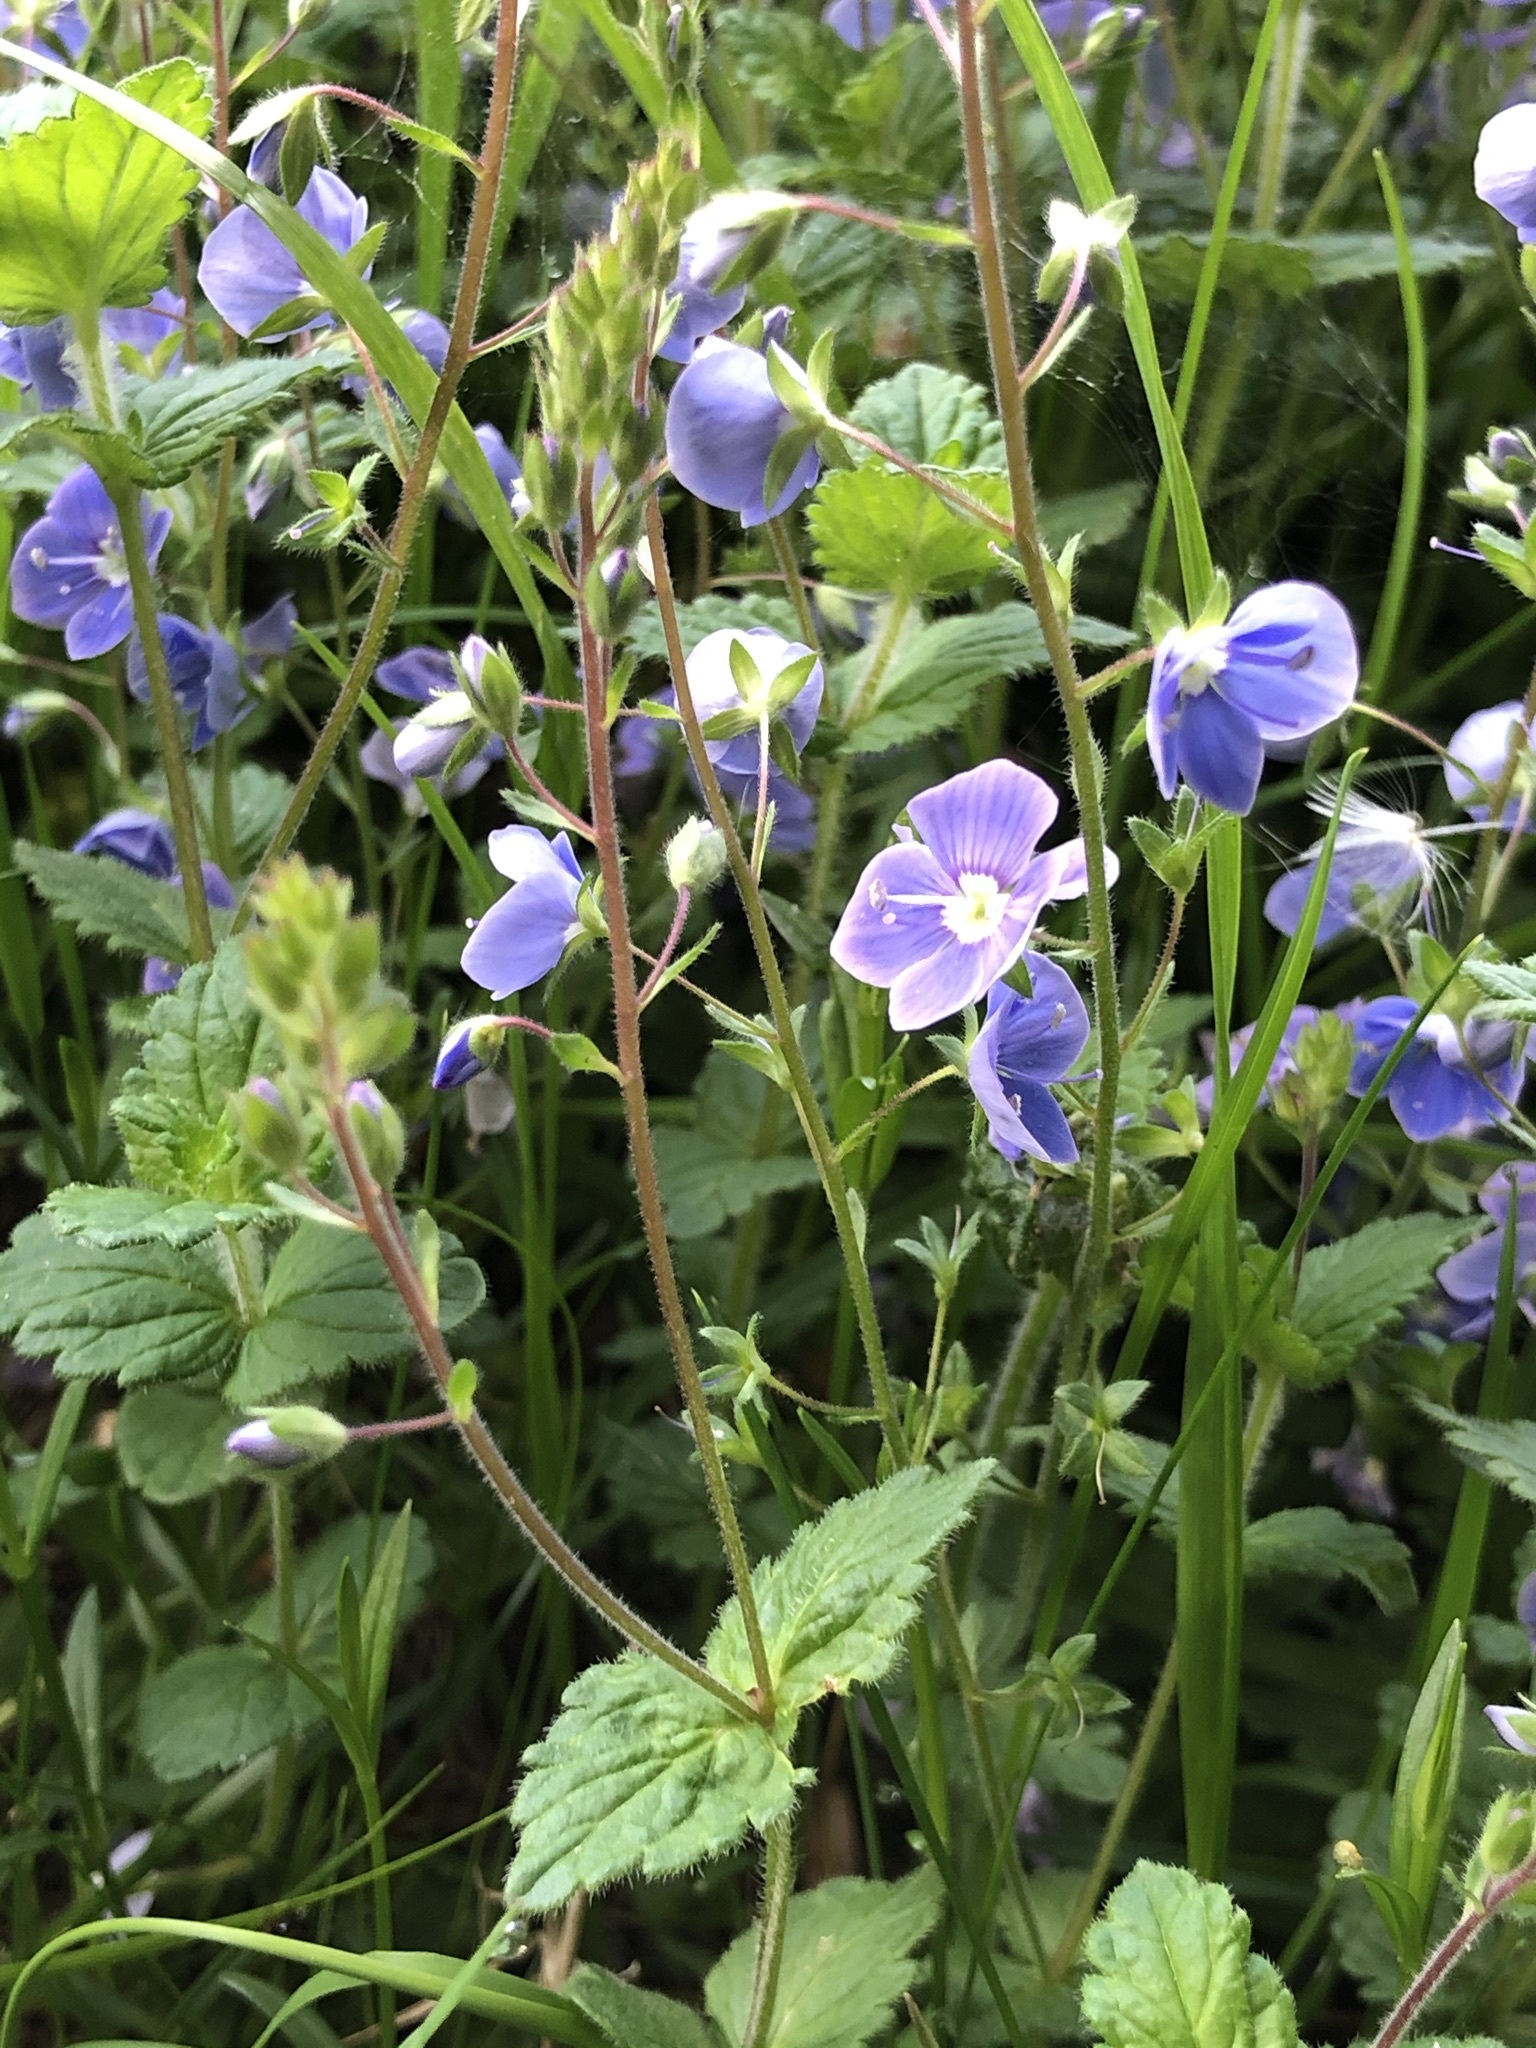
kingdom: Plantae
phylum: Tracheophyta
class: Magnoliopsida
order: Lamiales
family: Plantaginaceae
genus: Veronica
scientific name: Veronica chamaedrys
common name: Germander speedwell
